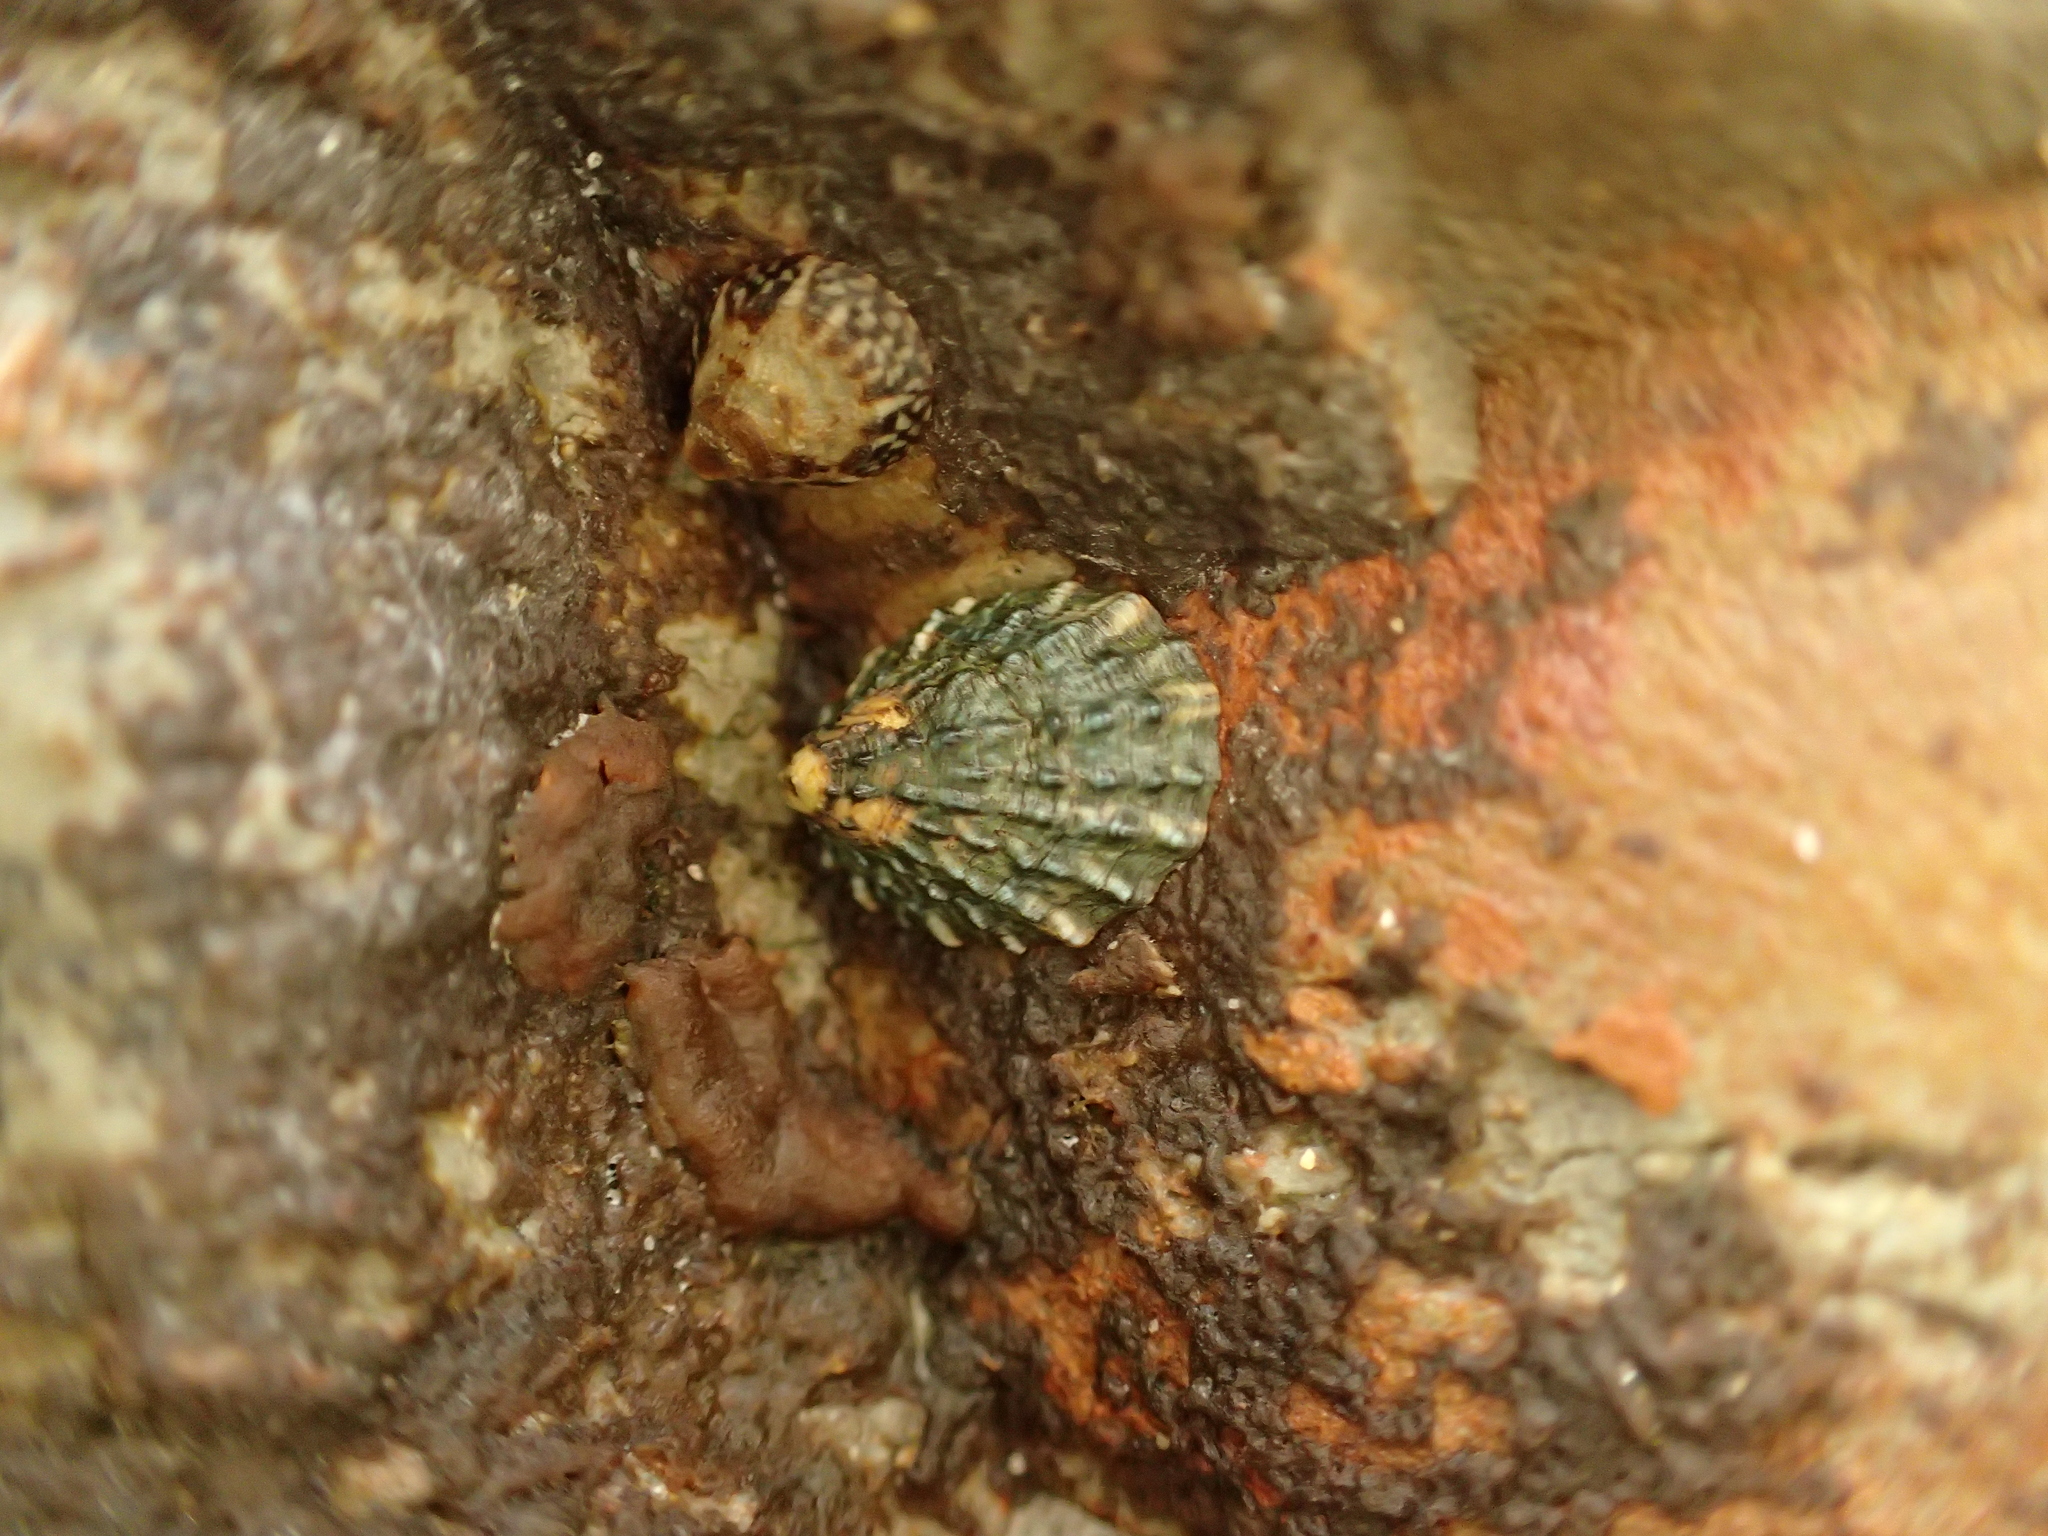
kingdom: Animalia
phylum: Mollusca
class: Gastropoda
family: Lottiidae
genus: Lottia
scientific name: Lottia scabra
